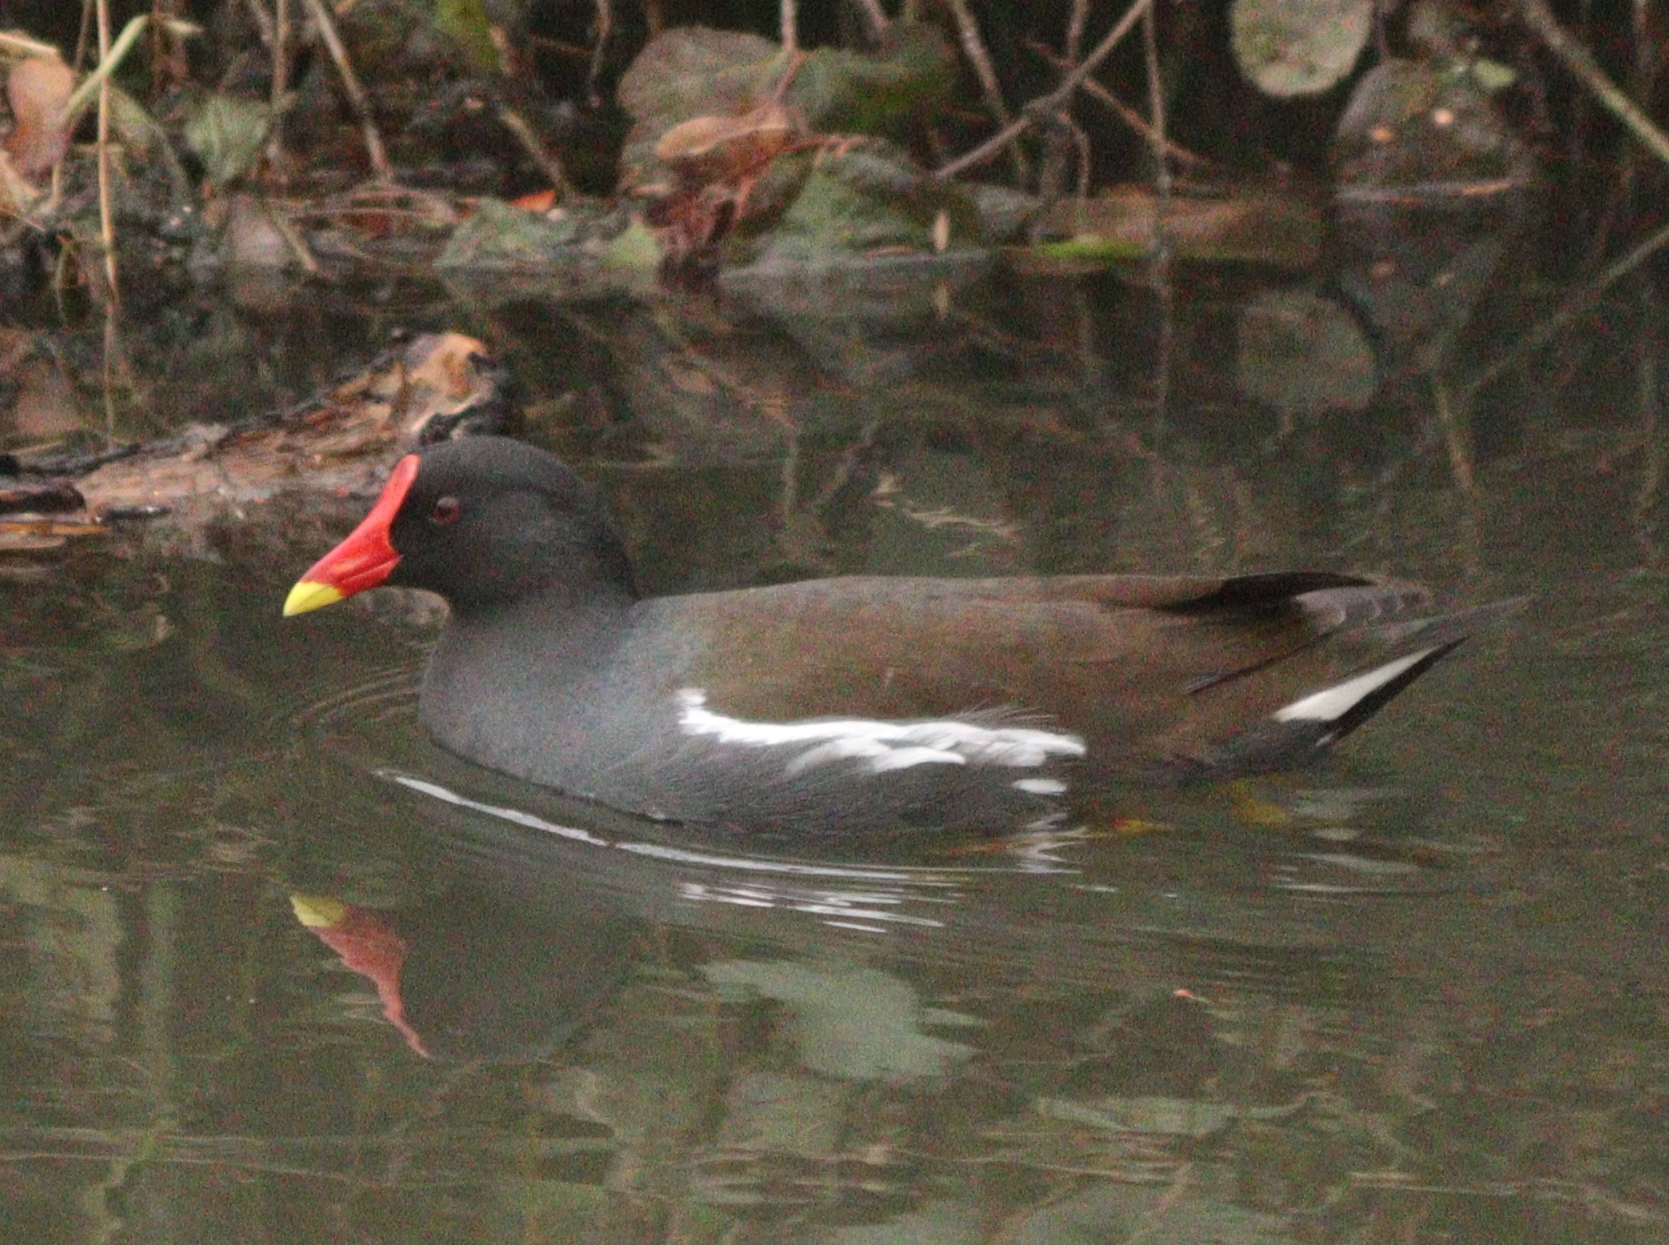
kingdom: Animalia
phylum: Chordata
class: Aves
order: Gruiformes
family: Rallidae
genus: Gallinula
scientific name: Gallinula chloropus
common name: Common moorhen
